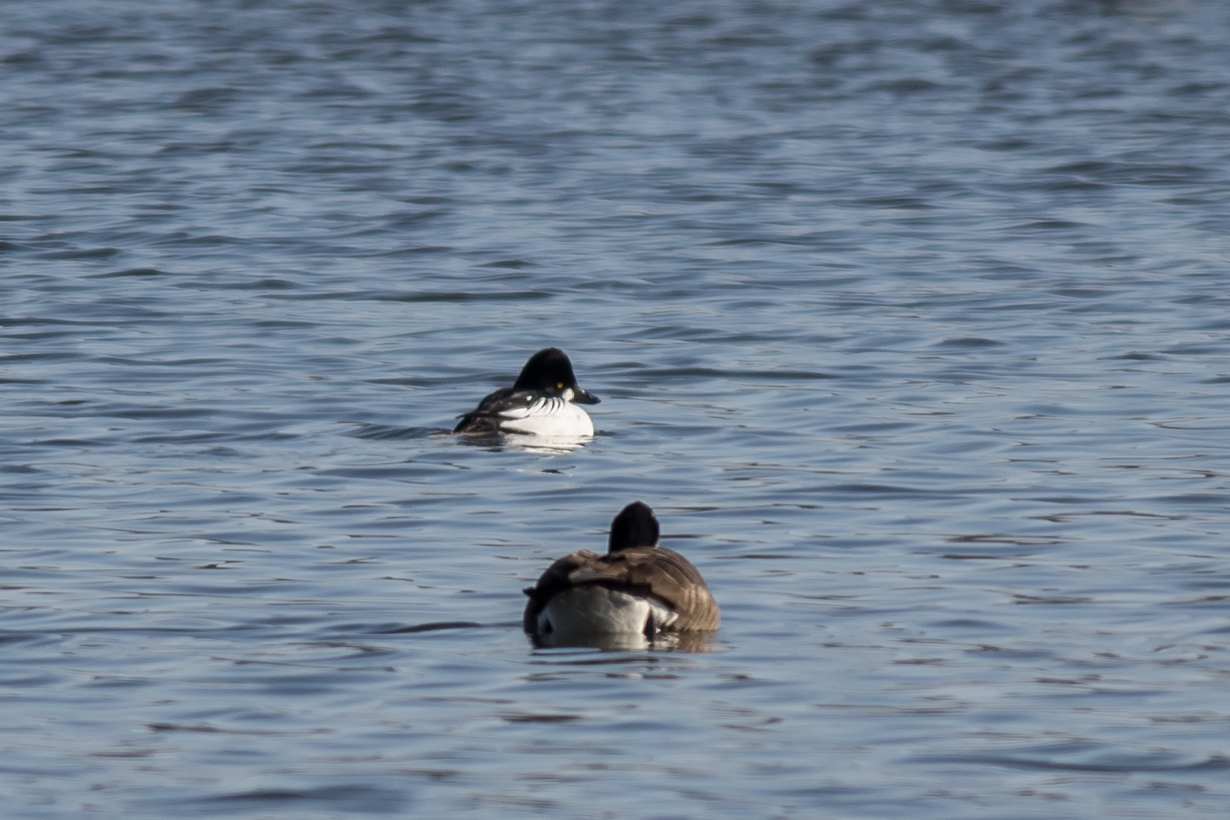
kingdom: Animalia
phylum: Chordata
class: Aves
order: Anseriformes
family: Anatidae
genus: Bucephala
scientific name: Bucephala clangula
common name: Common goldeneye
